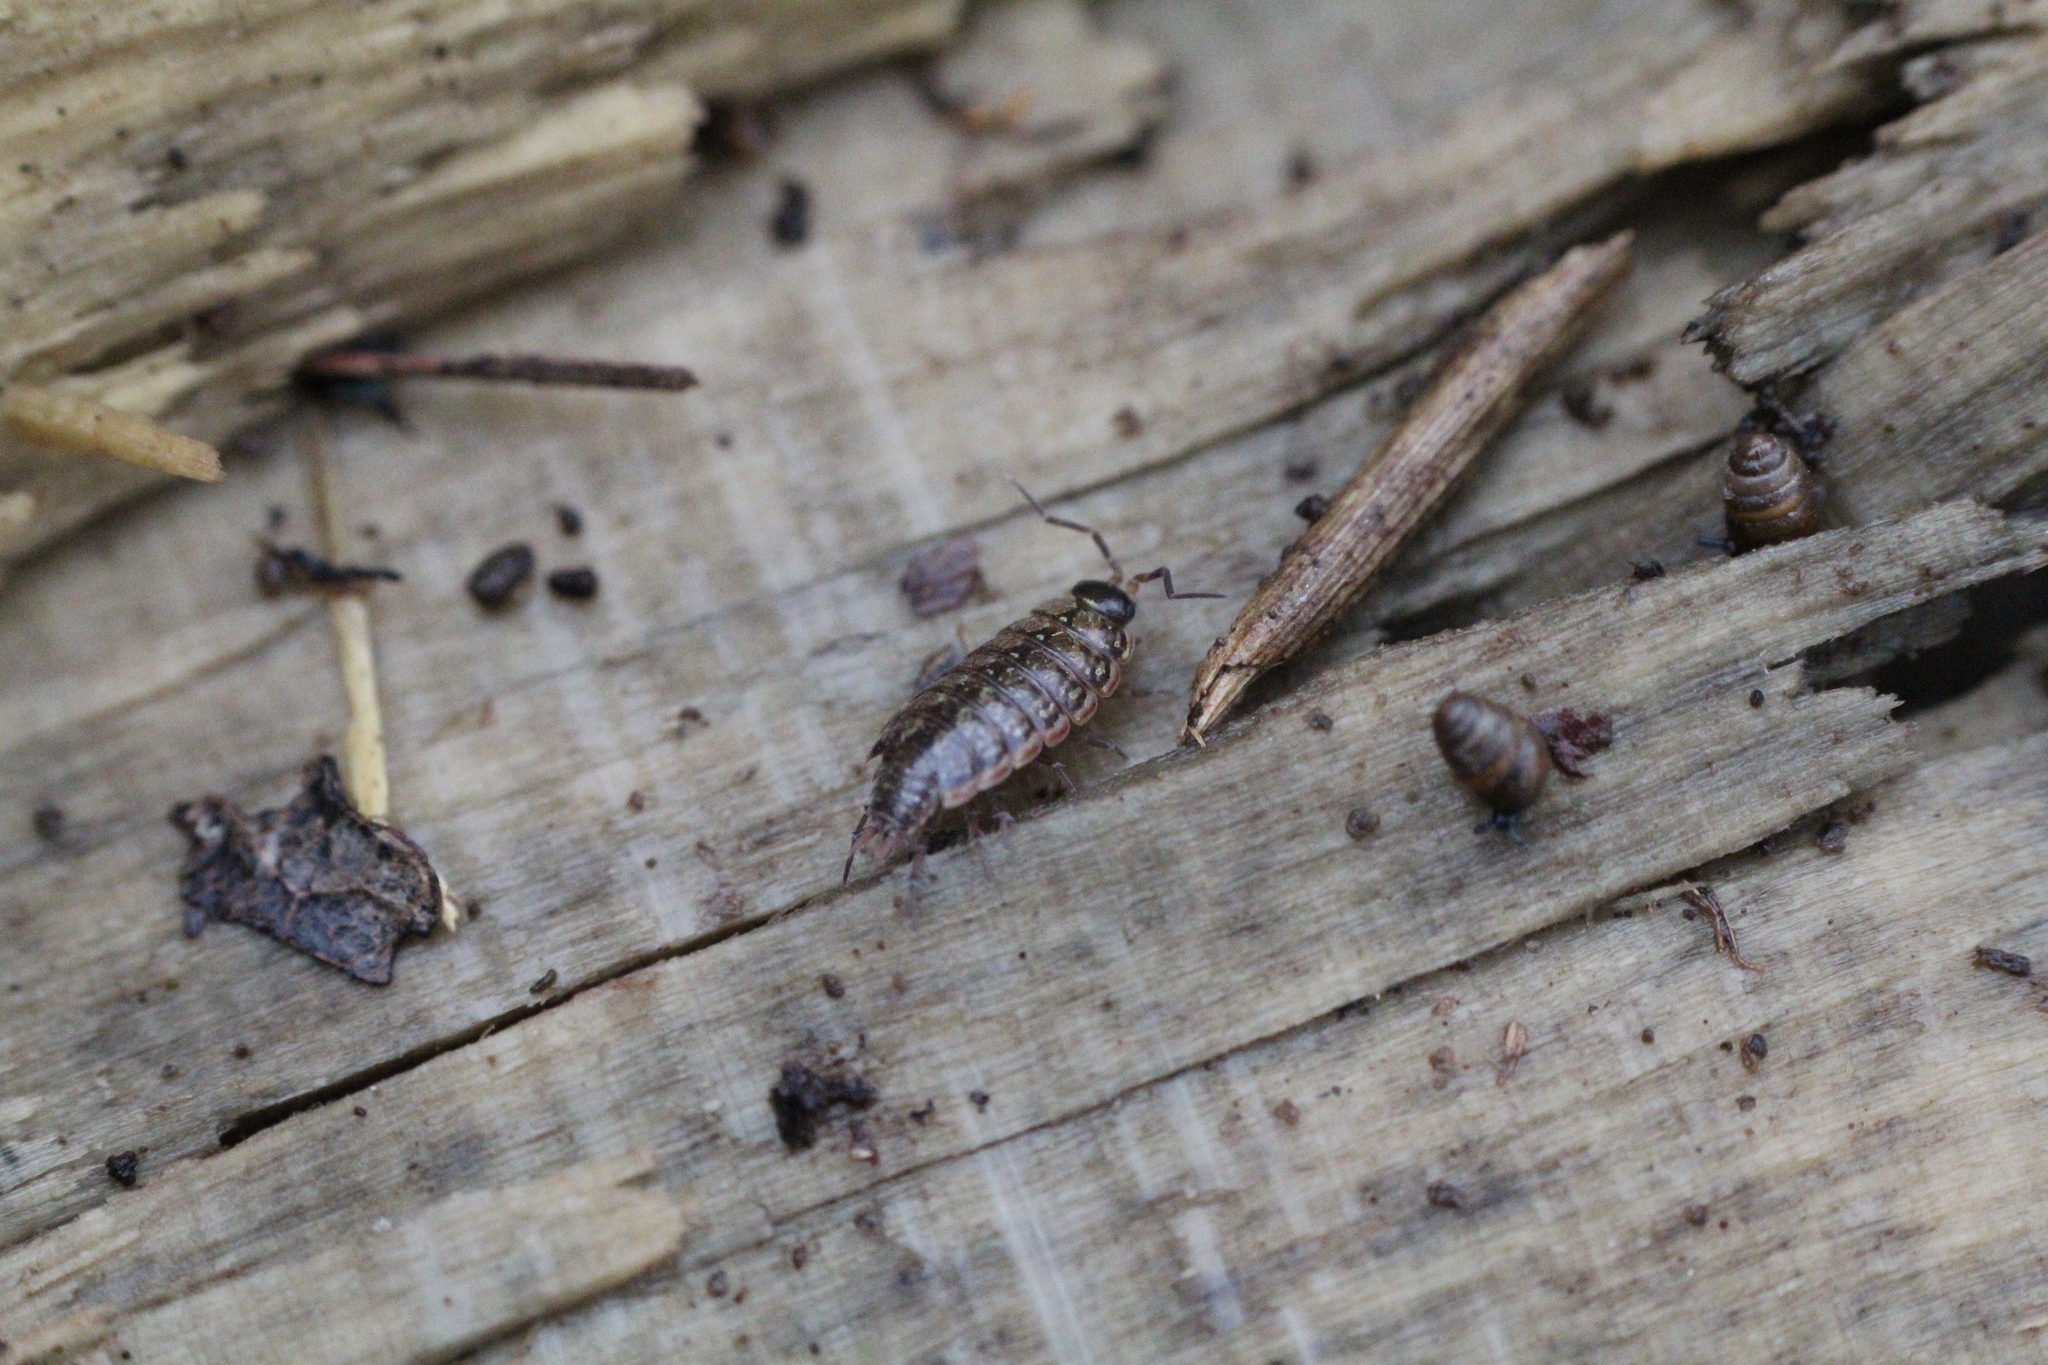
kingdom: Animalia
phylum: Arthropoda
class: Malacostraca
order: Isopoda
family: Philosciidae
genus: Philoscia
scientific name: Philoscia muscorum
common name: Common striped woodlouse
